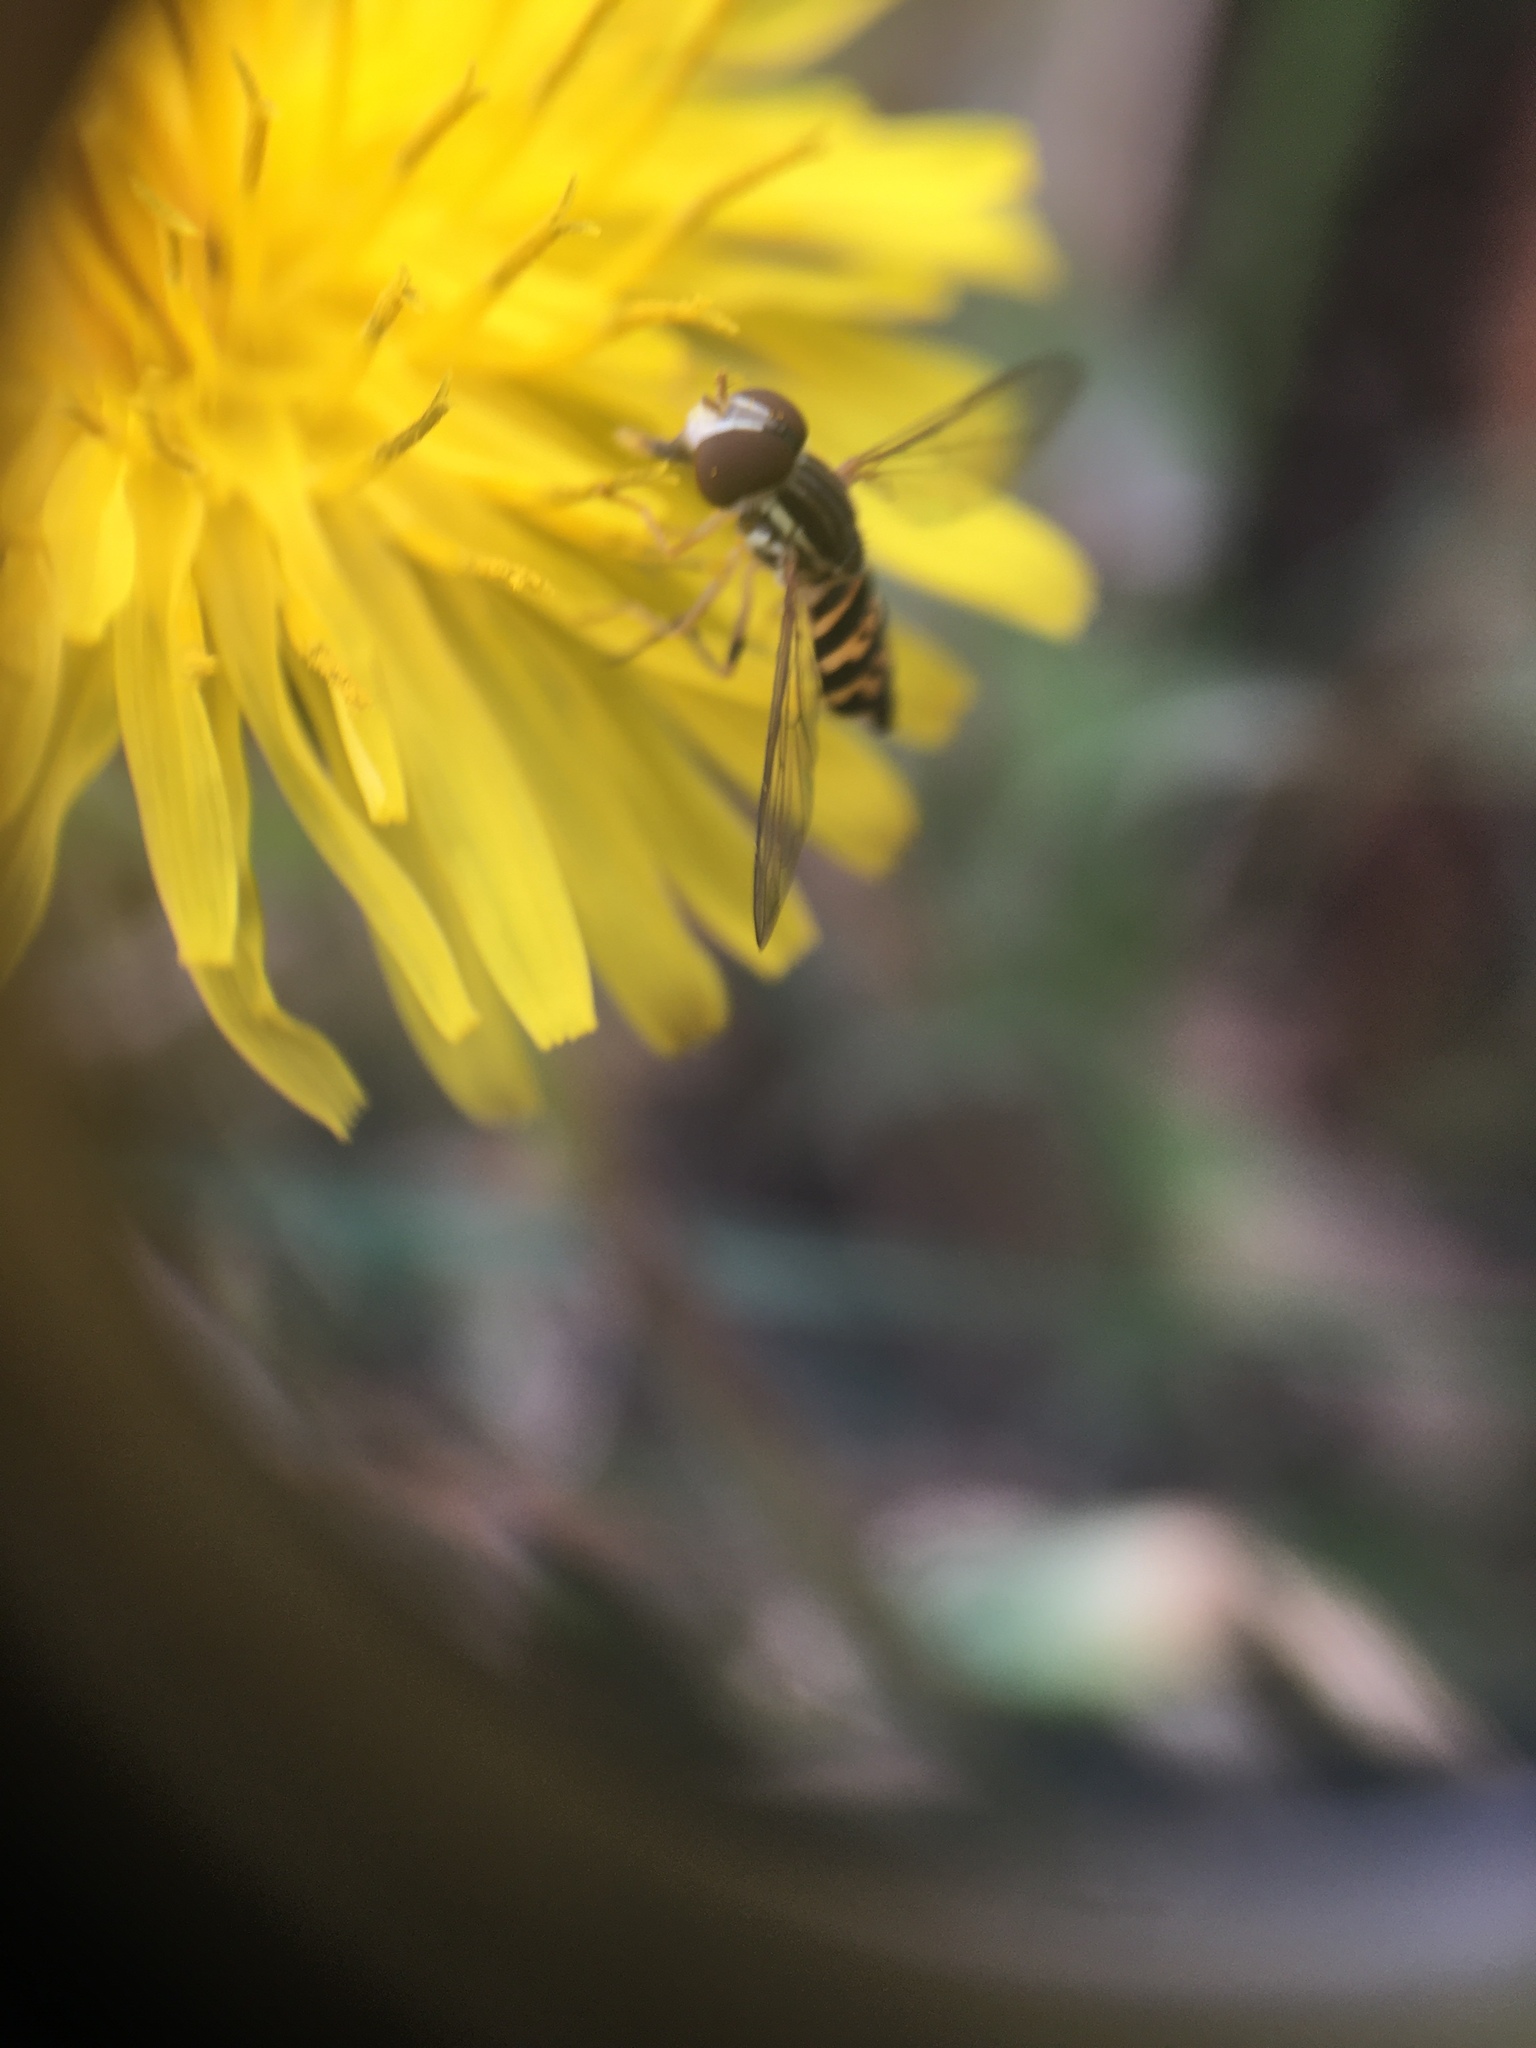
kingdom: Animalia
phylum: Arthropoda
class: Insecta
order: Diptera
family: Syrphidae
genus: Toxomerus
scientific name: Toxomerus geminatus
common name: Eastern calligrapher
